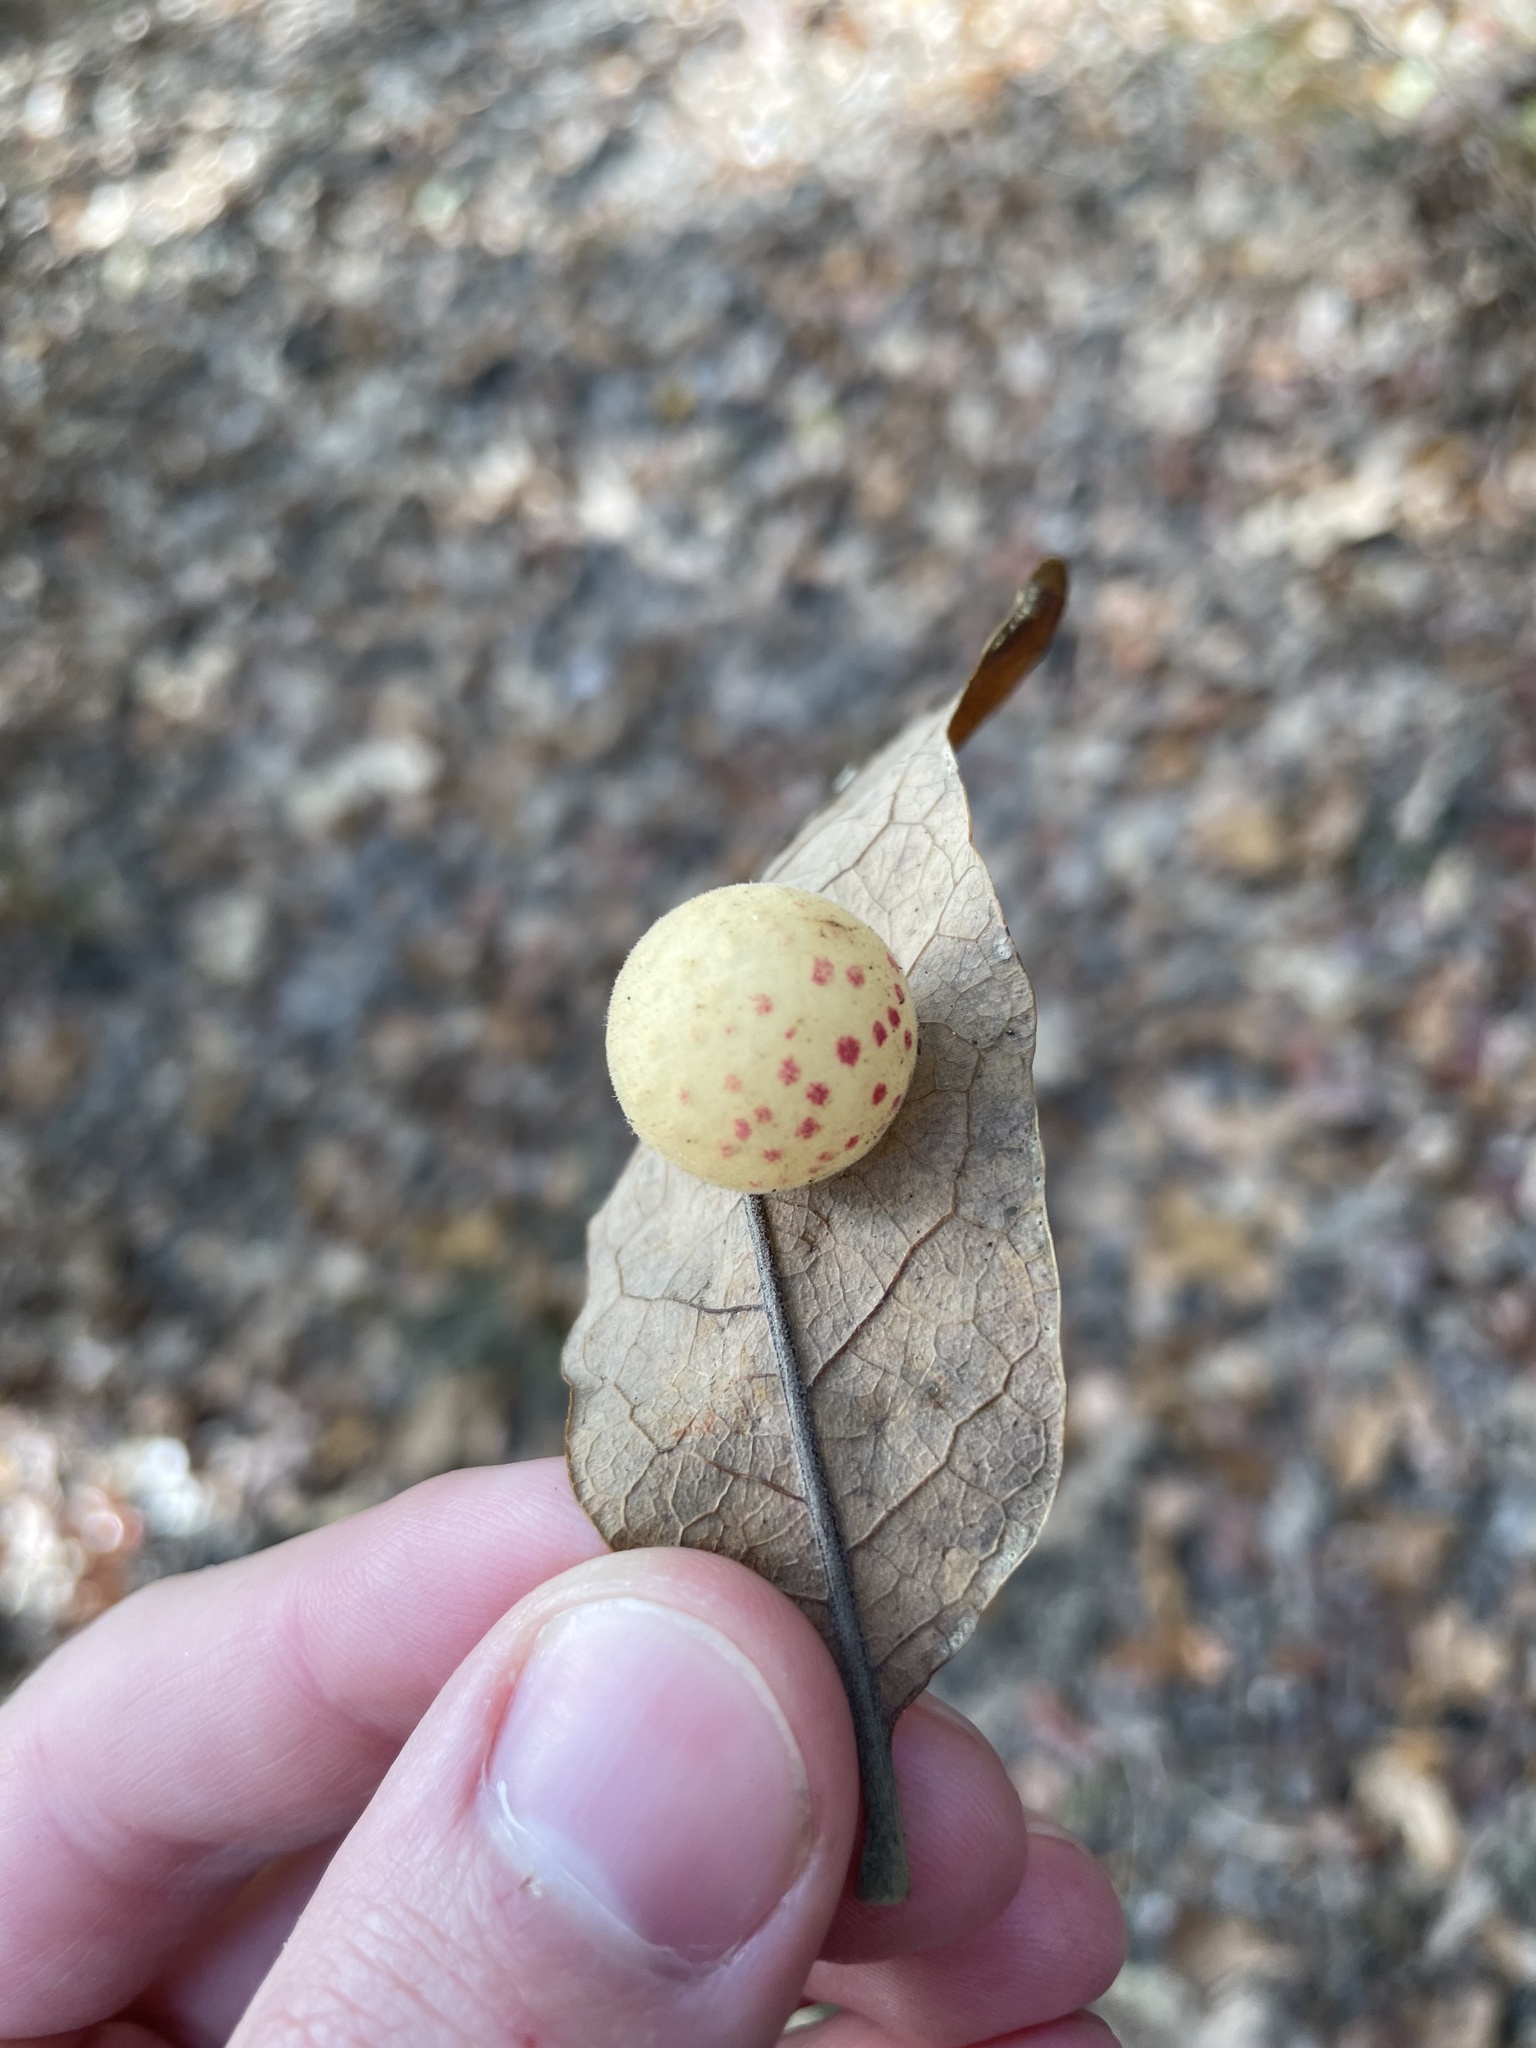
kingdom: Animalia
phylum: Arthropoda
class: Insecta
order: Hymenoptera
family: Cynipidae
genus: Atrusca
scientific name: Atrusca
